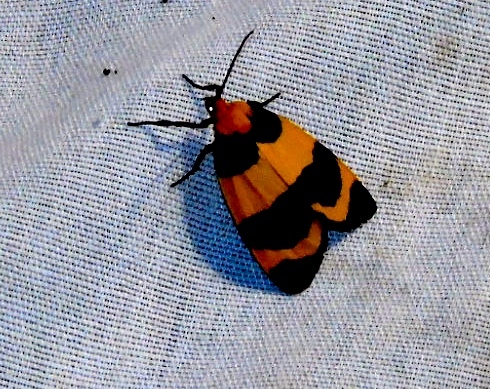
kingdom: Animalia
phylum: Arthropoda
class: Insecta
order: Lepidoptera
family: Erebidae
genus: Eudesmia
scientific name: Eudesmia menea
